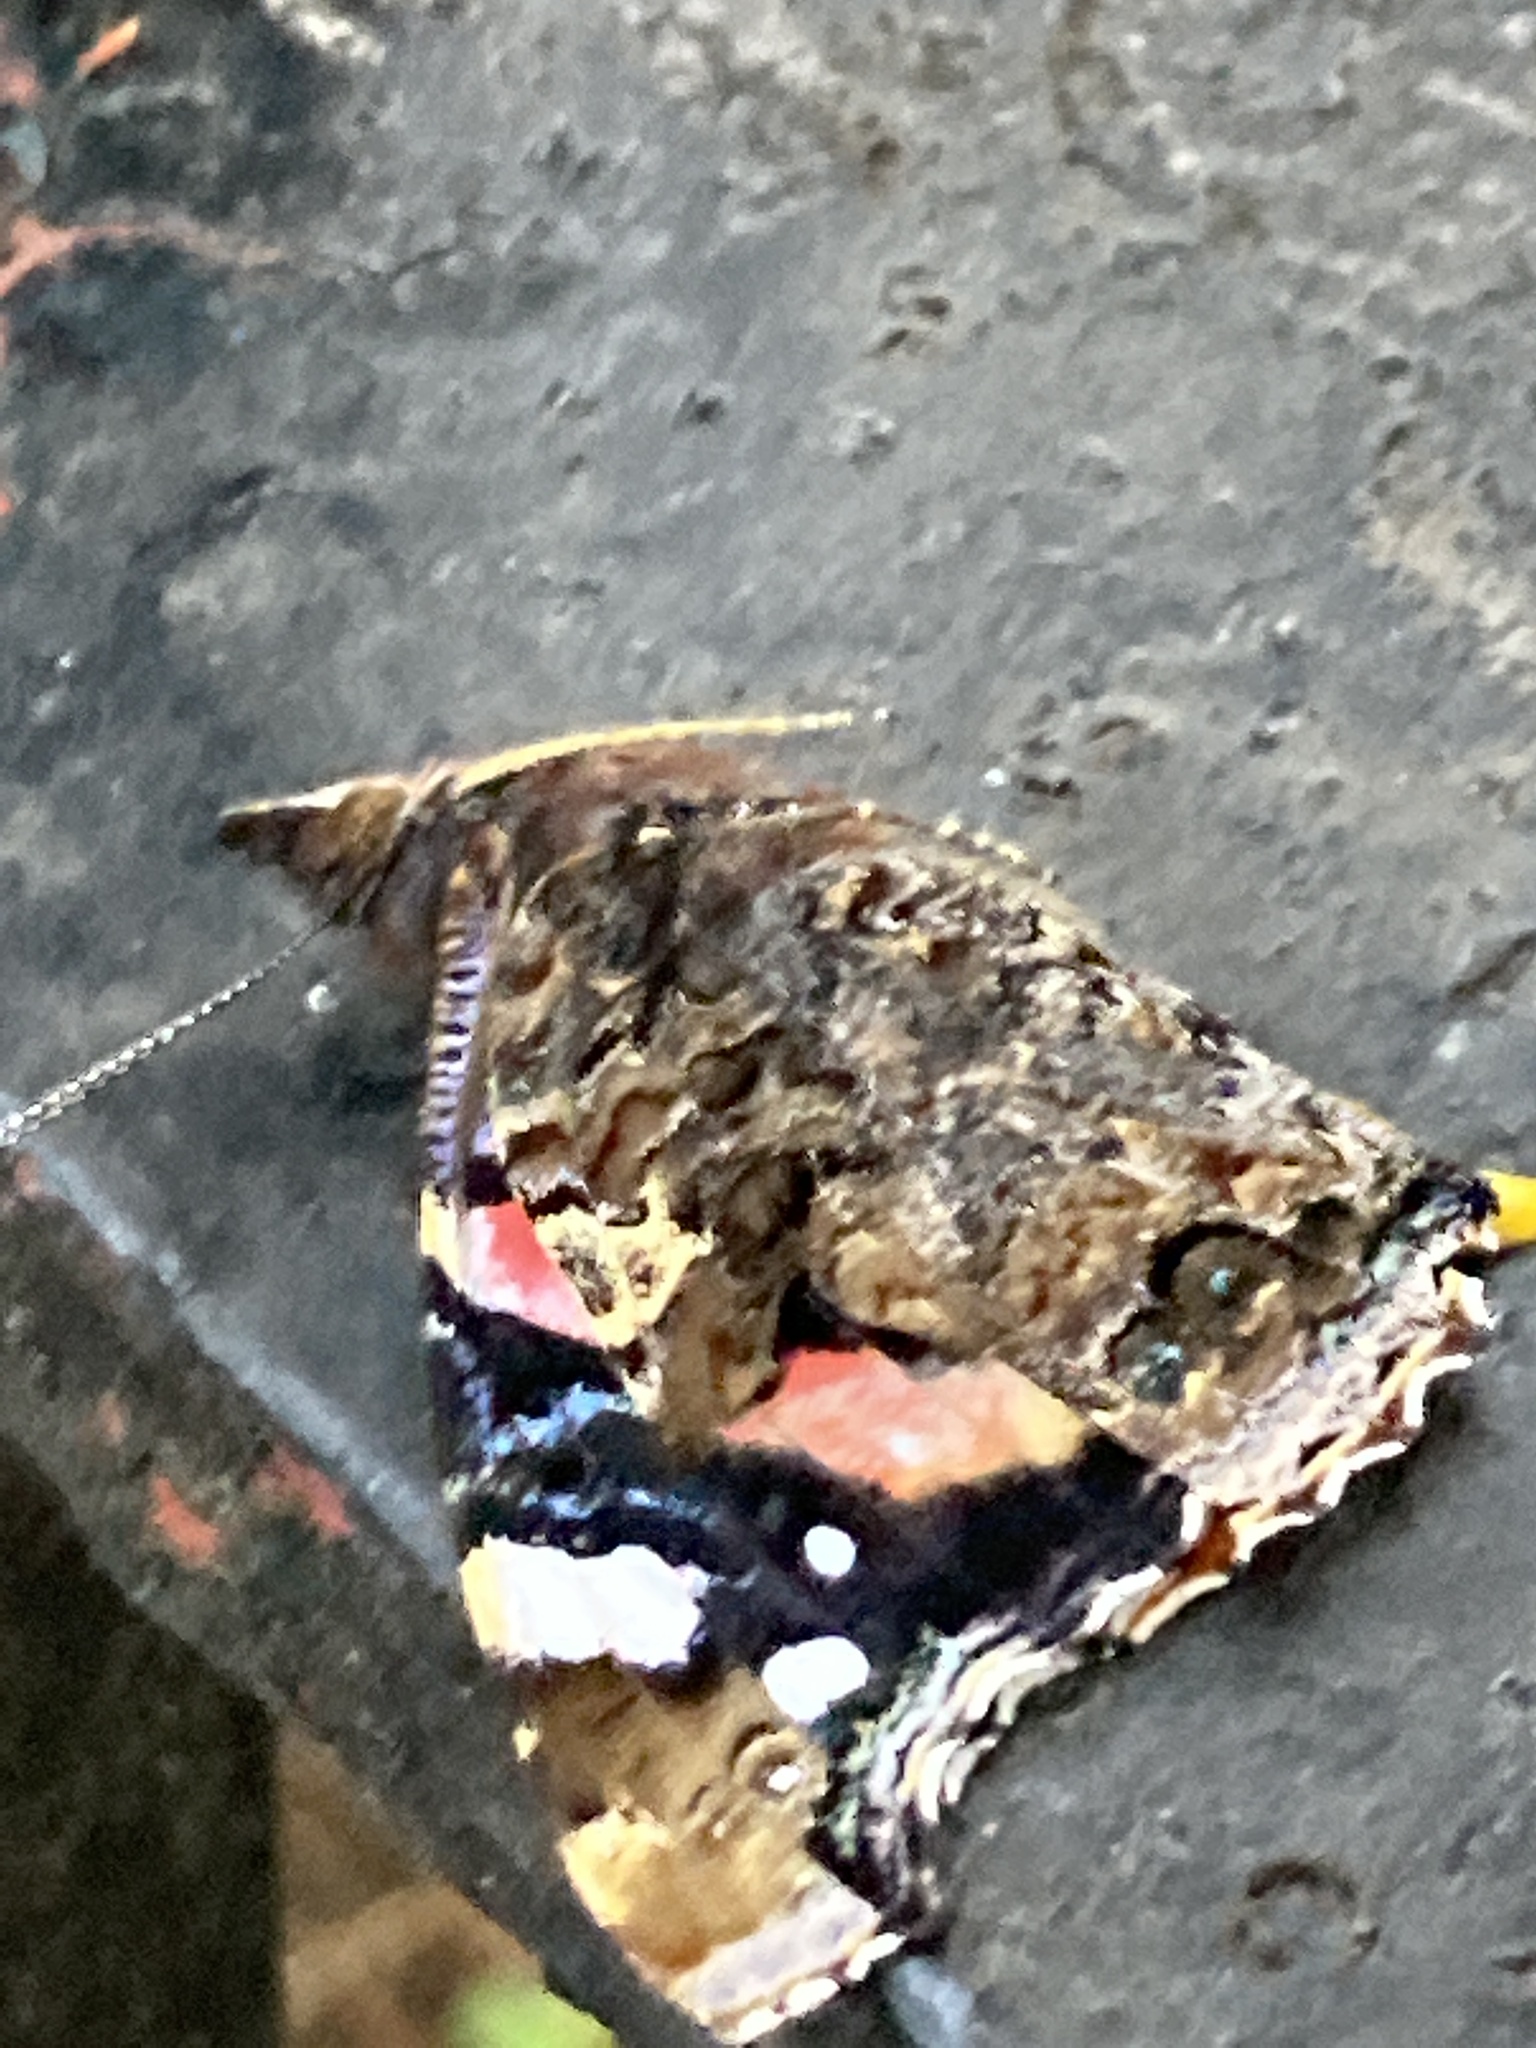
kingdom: Animalia
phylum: Arthropoda
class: Insecta
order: Lepidoptera
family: Nymphalidae
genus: Vanessa
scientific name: Vanessa atalanta
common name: Red admiral
